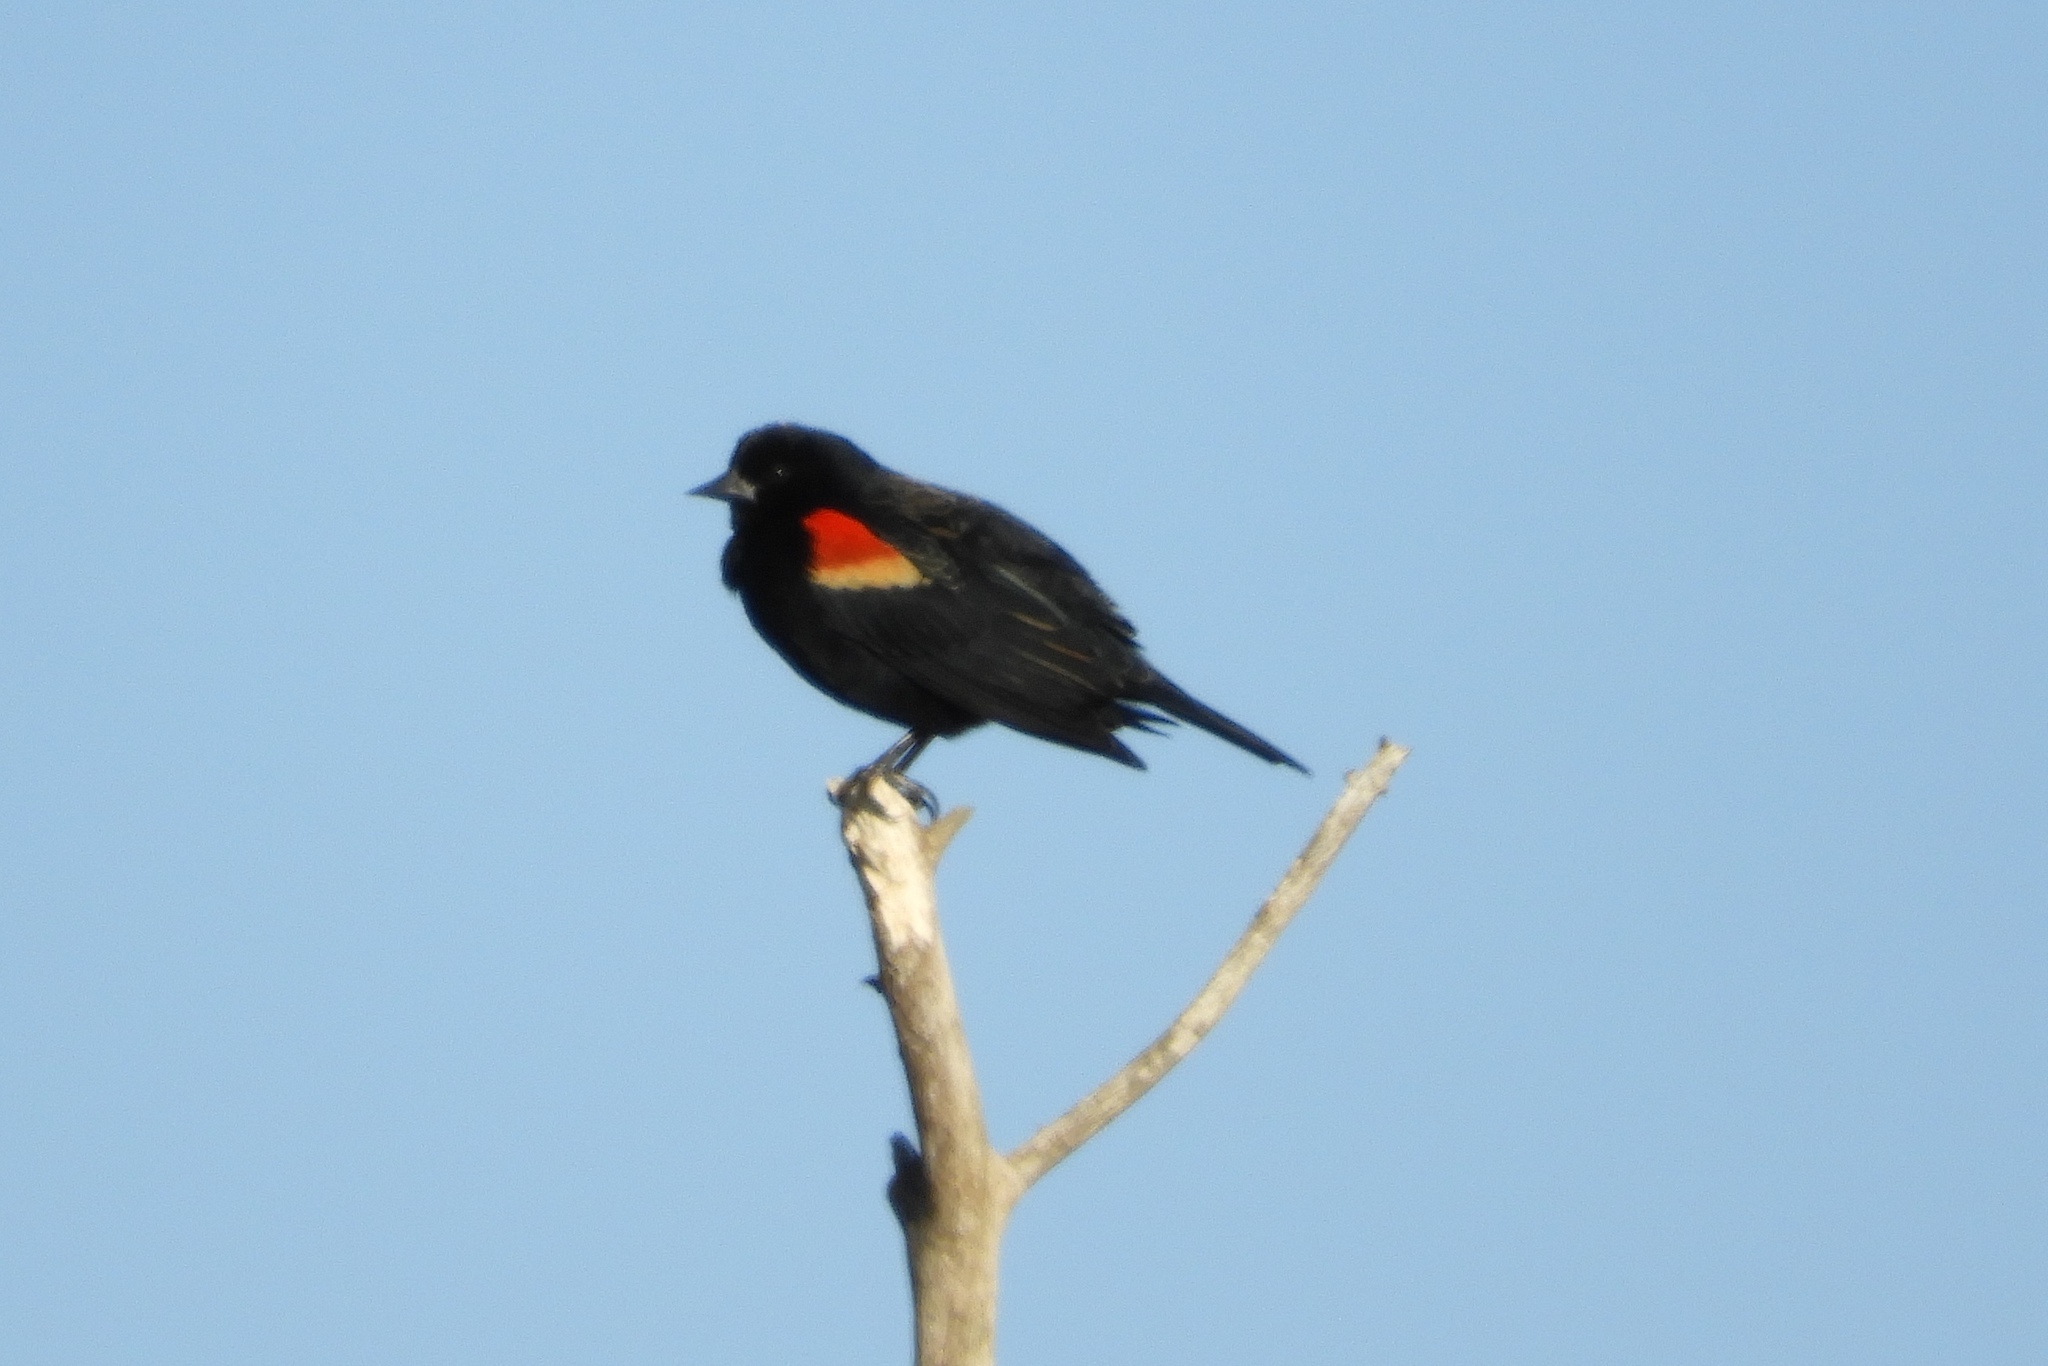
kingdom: Animalia
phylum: Chordata
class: Aves
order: Passeriformes
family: Icteridae
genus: Agelaius
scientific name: Agelaius phoeniceus
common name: Red-winged blackbird
